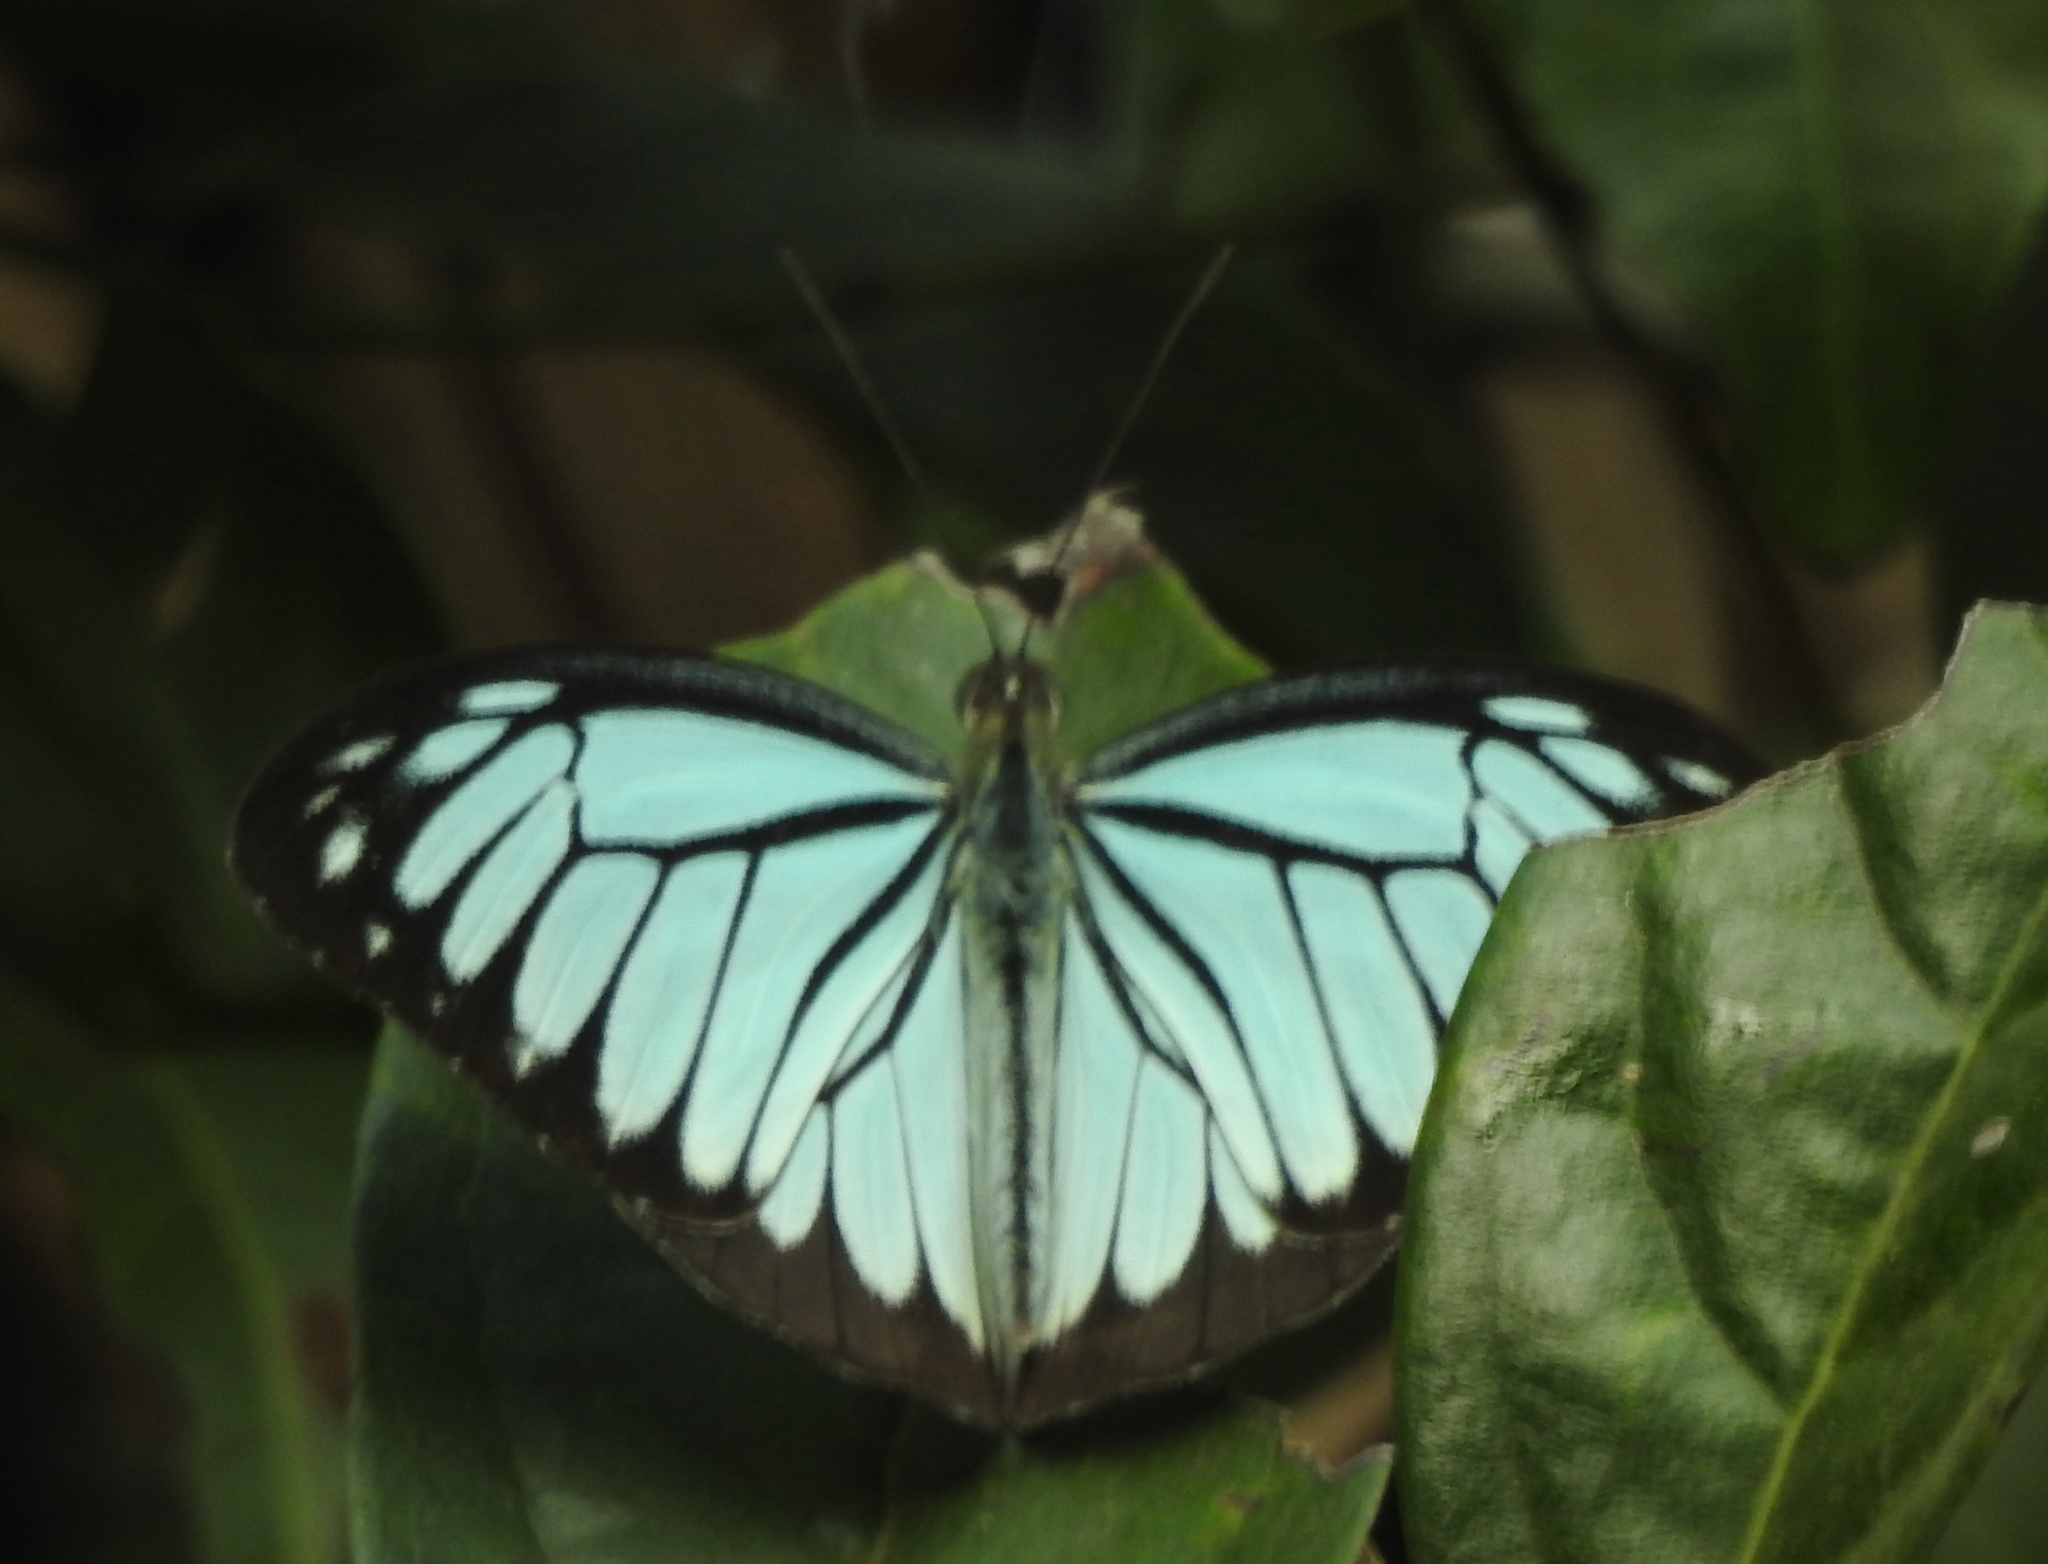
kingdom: Animalia
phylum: Arthropoda
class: Insecta
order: Lepidoptera
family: Pieridae
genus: Pareronia
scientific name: Pareronia hippia
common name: Indian wanderer
